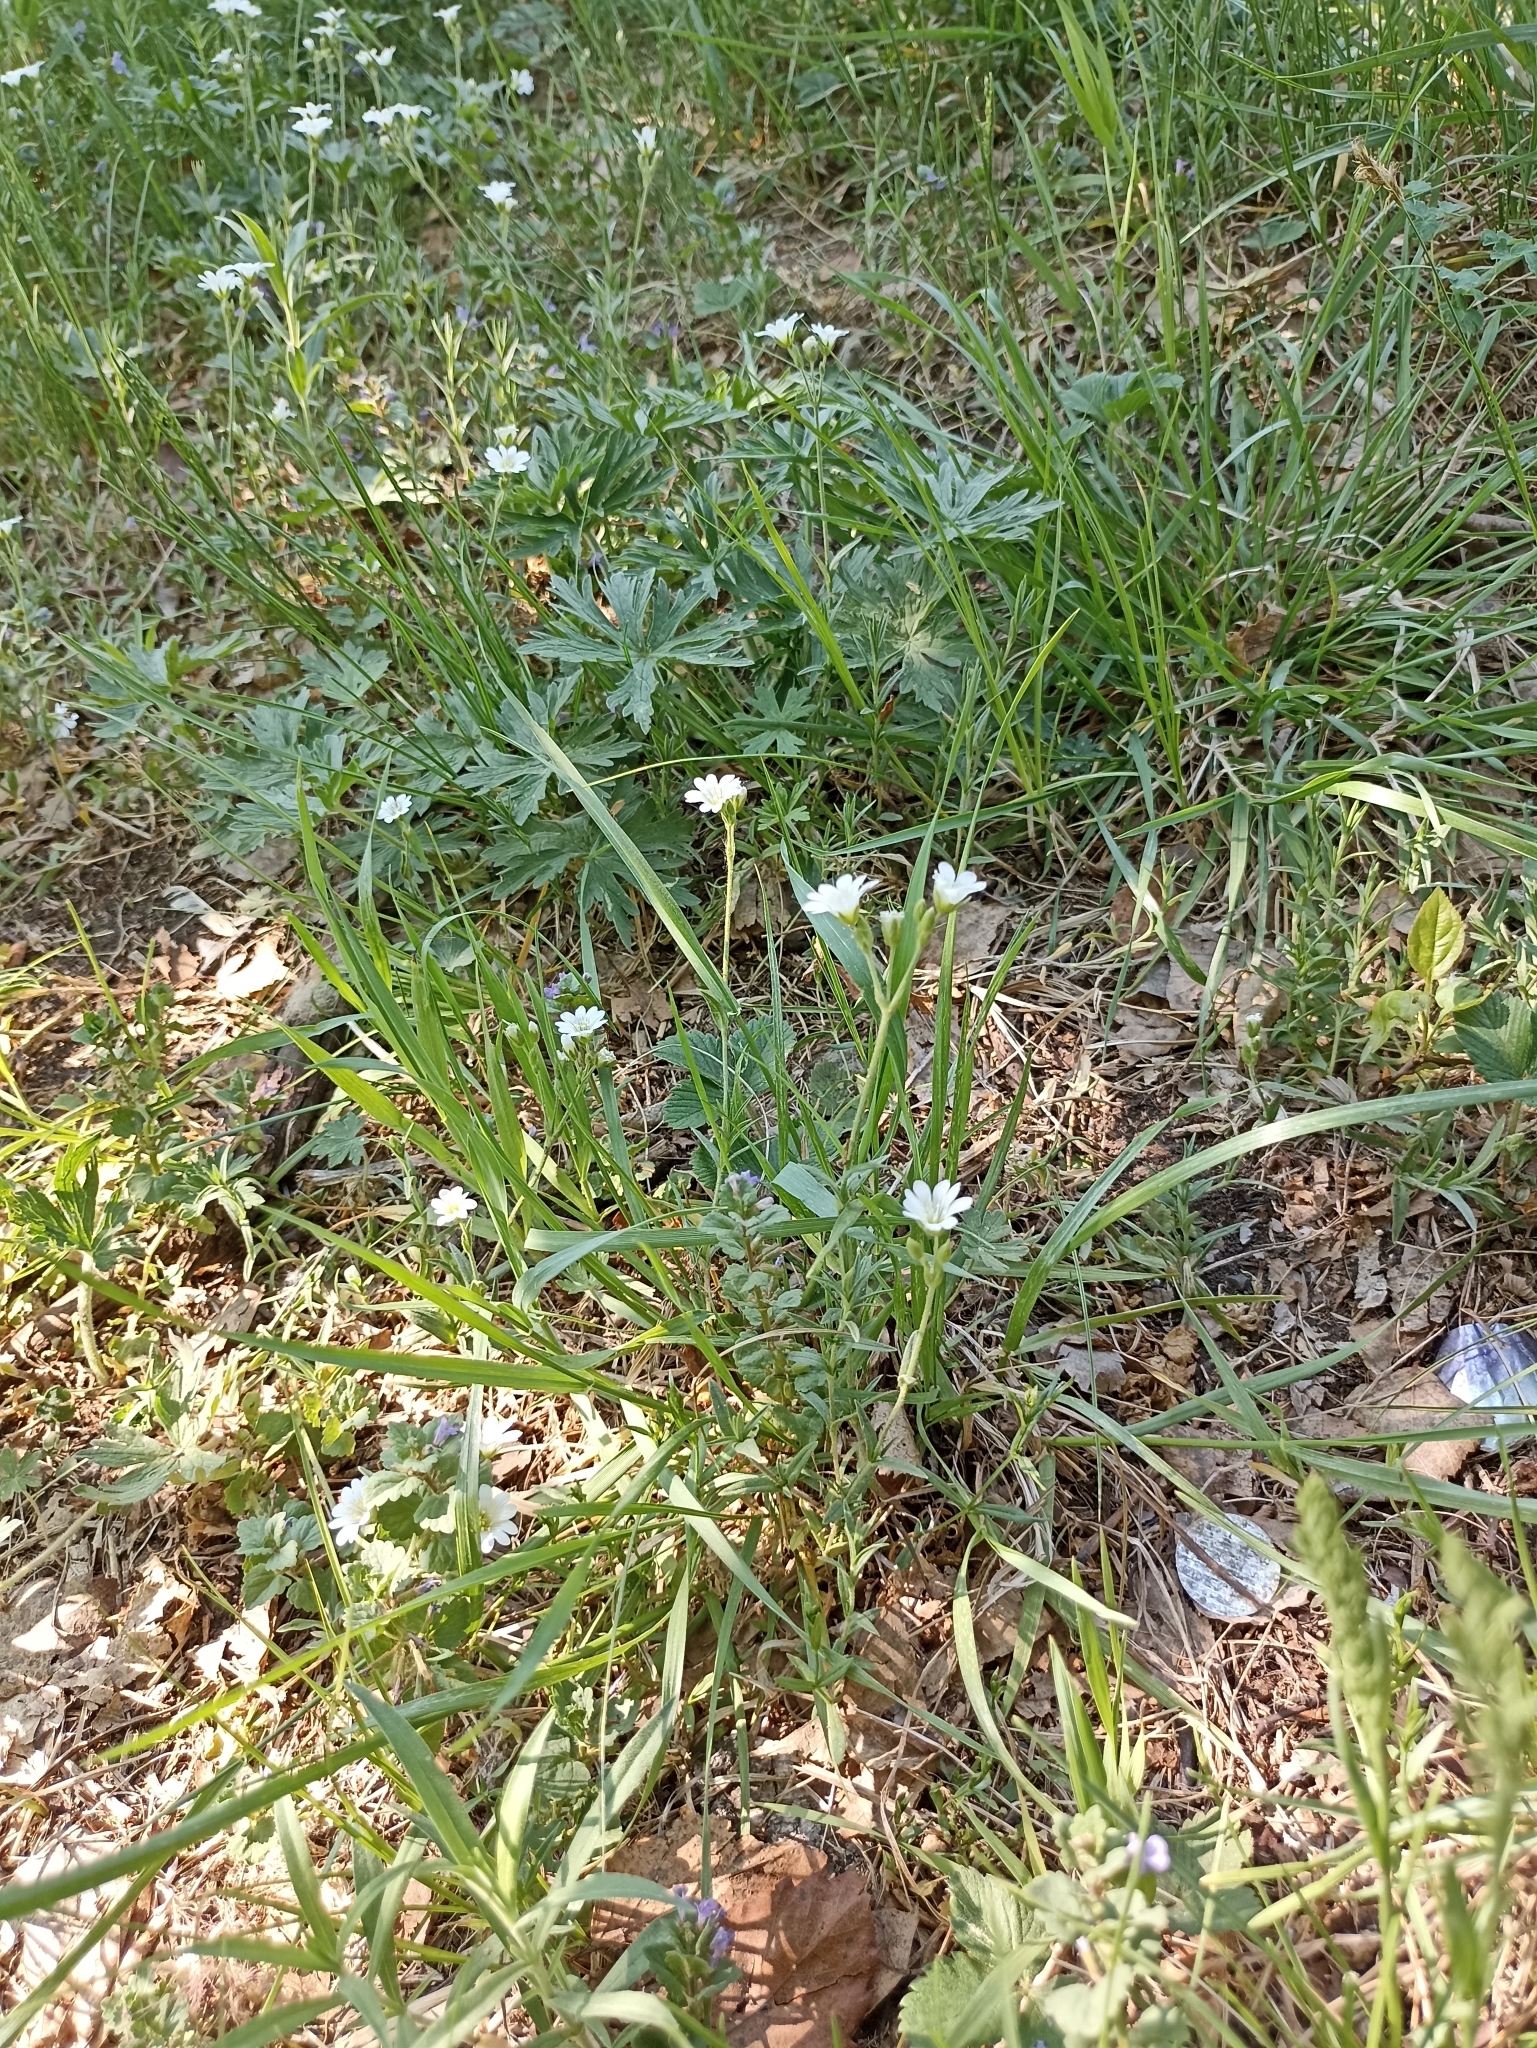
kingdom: Plantae
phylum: Tracheophyta
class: Magnoliopsida
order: Caryophyllales
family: Caryophyllaceae
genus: Cerastium
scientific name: Cerastium arvense
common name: Field mouse-ear
